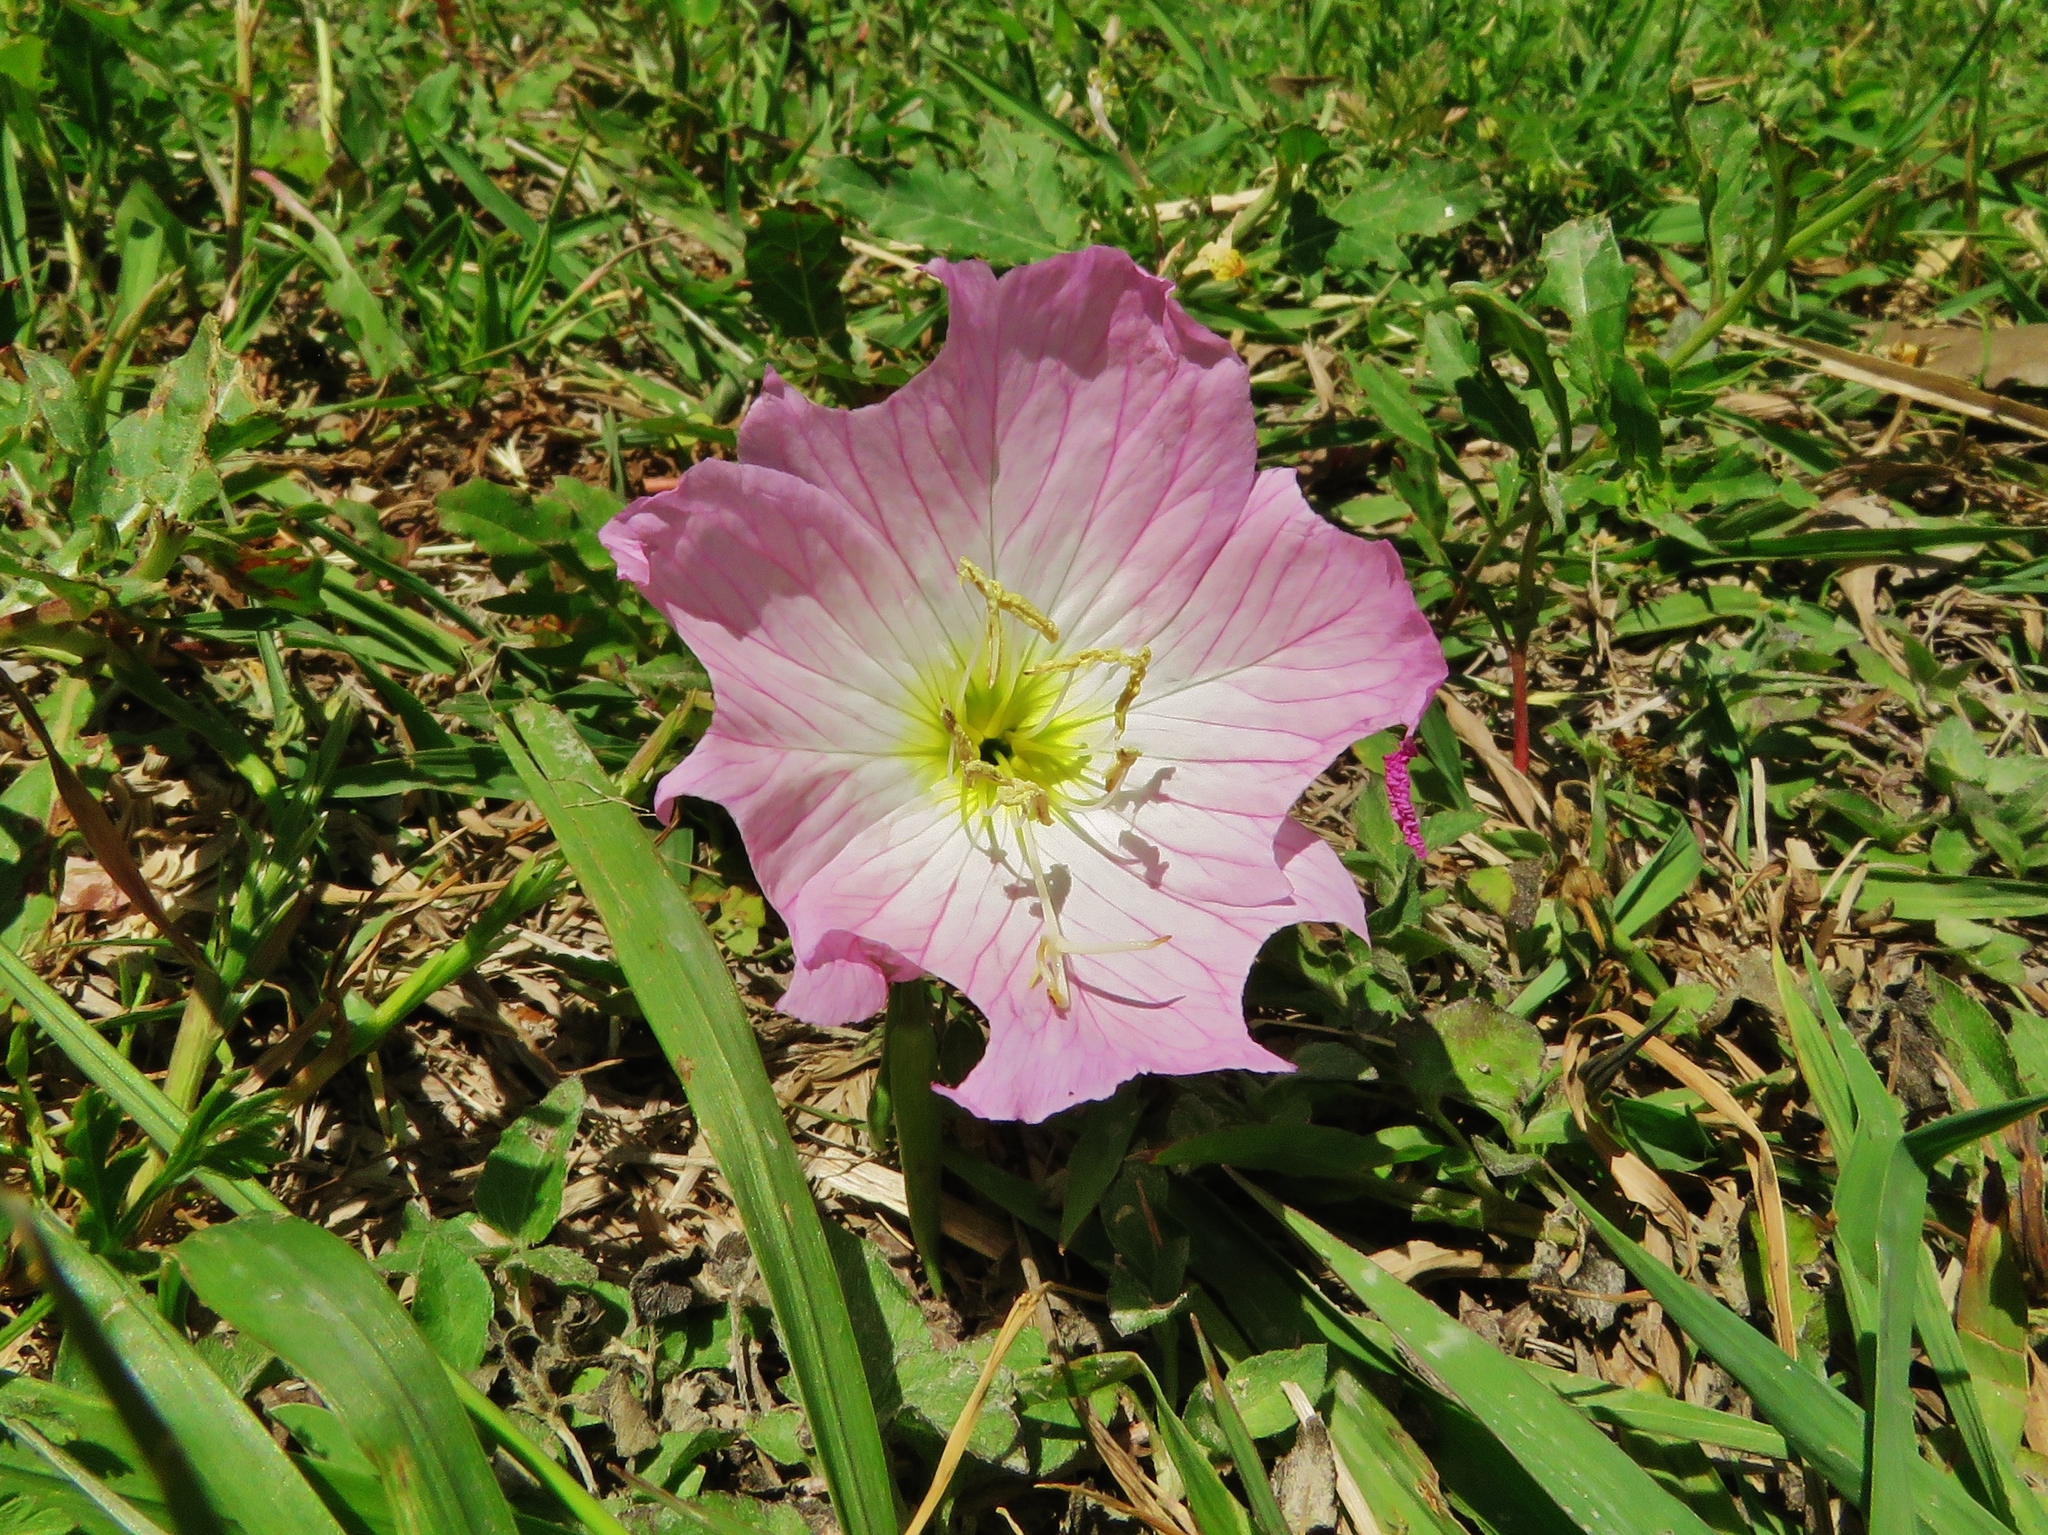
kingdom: Plantae
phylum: Tracheophyta
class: Magnoliopsida
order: Myrtales
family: Onagraceae
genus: Oenothera
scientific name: Oenothera speciosa
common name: White evening-primrose
